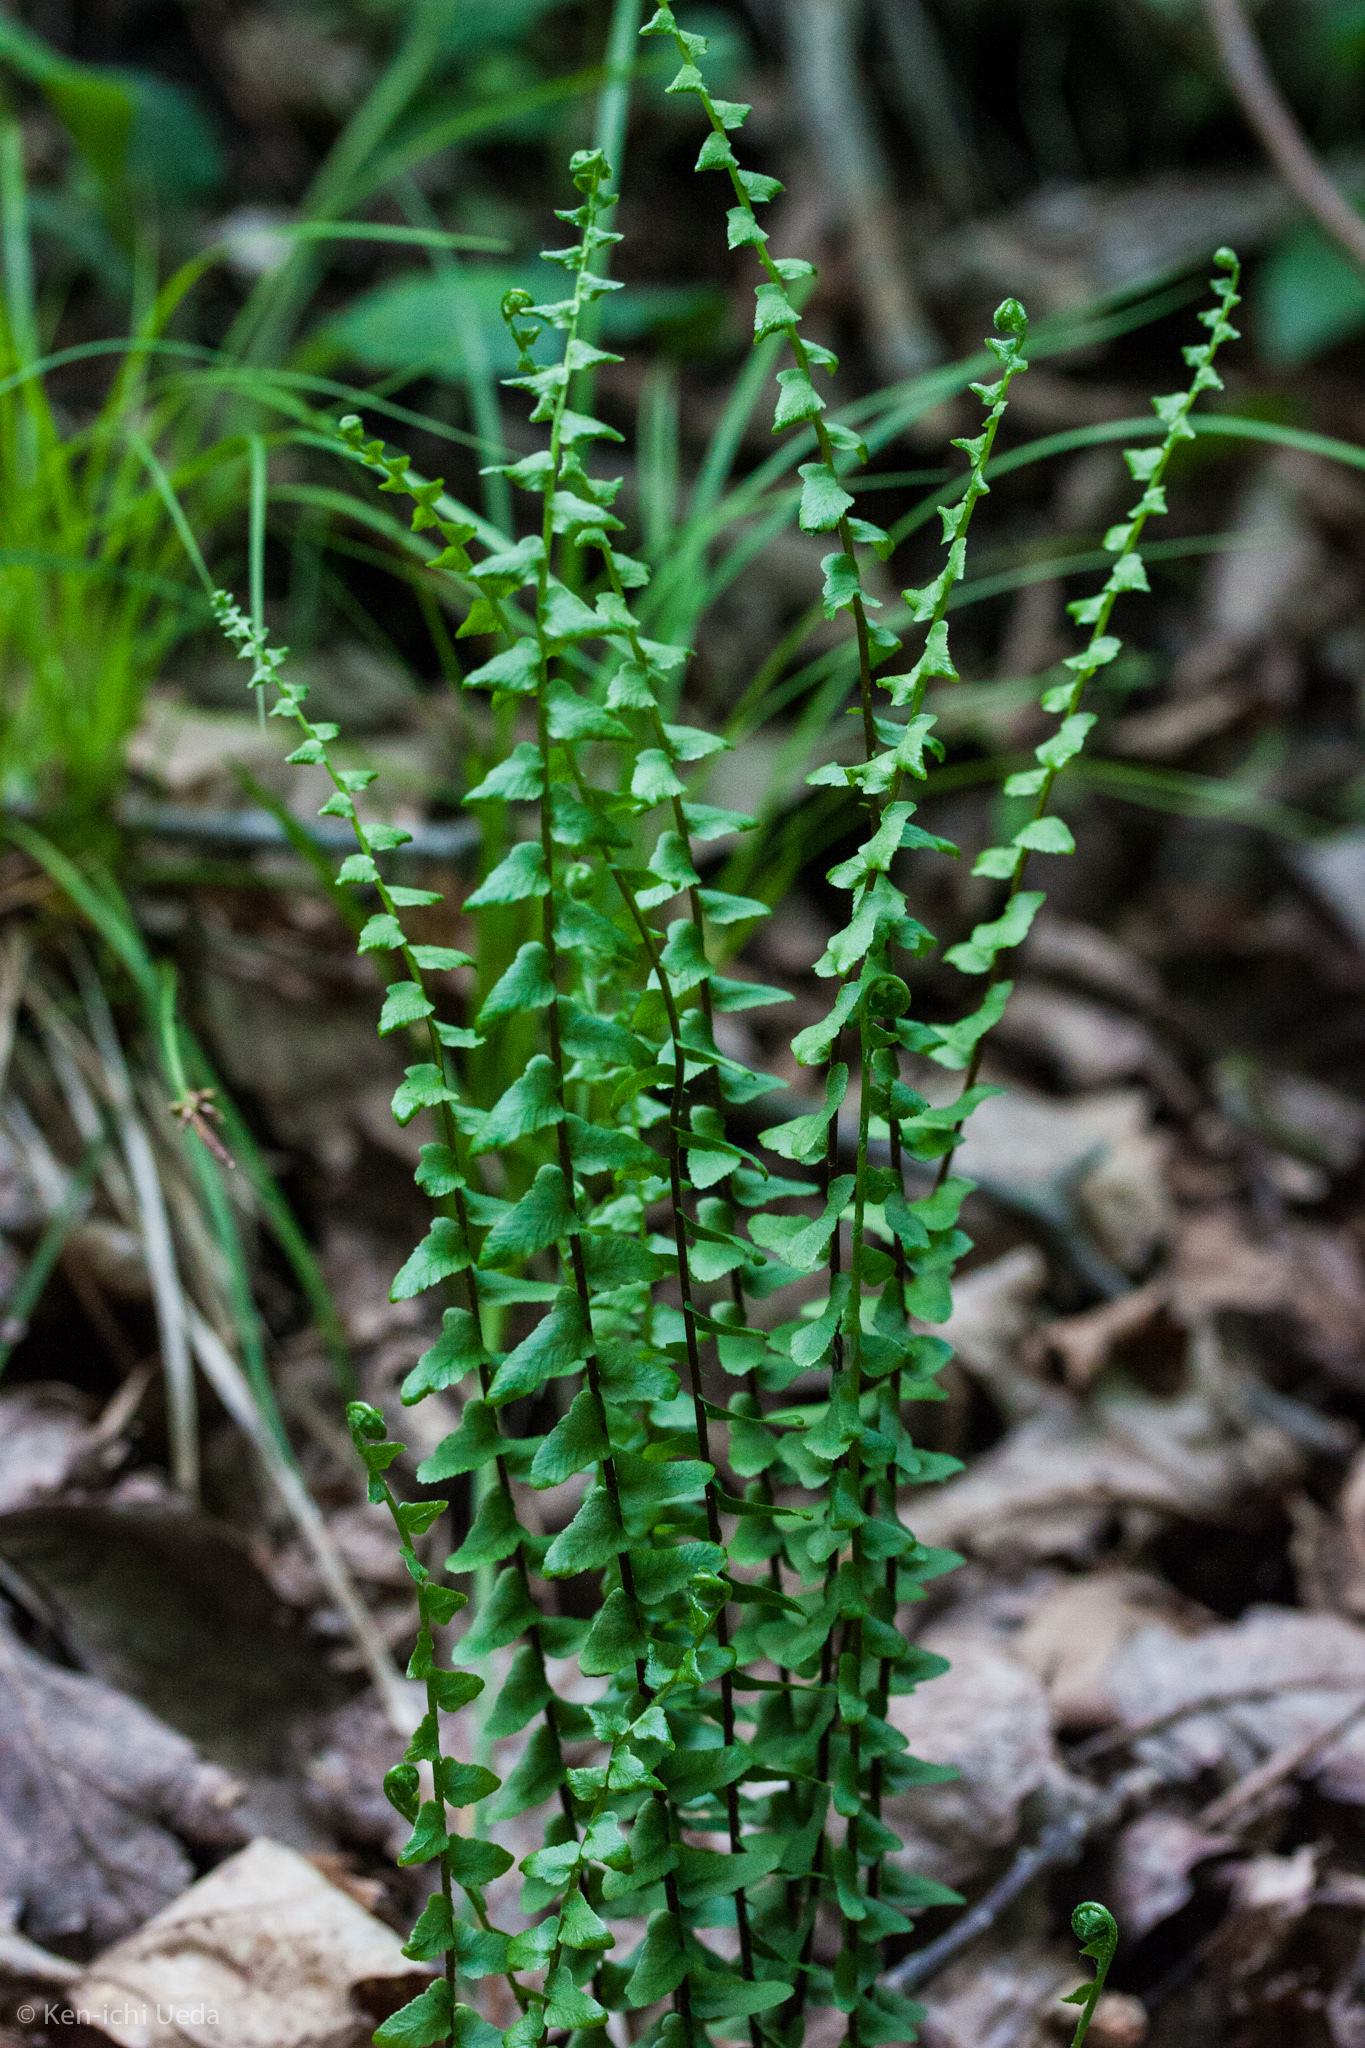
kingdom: Plantae
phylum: Tracheophyta
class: Polypodiopsida
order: Polypodiales
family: Aspleniaceae
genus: Asplenium
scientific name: Asplenium platyneuron
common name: Ebony spleenwort
